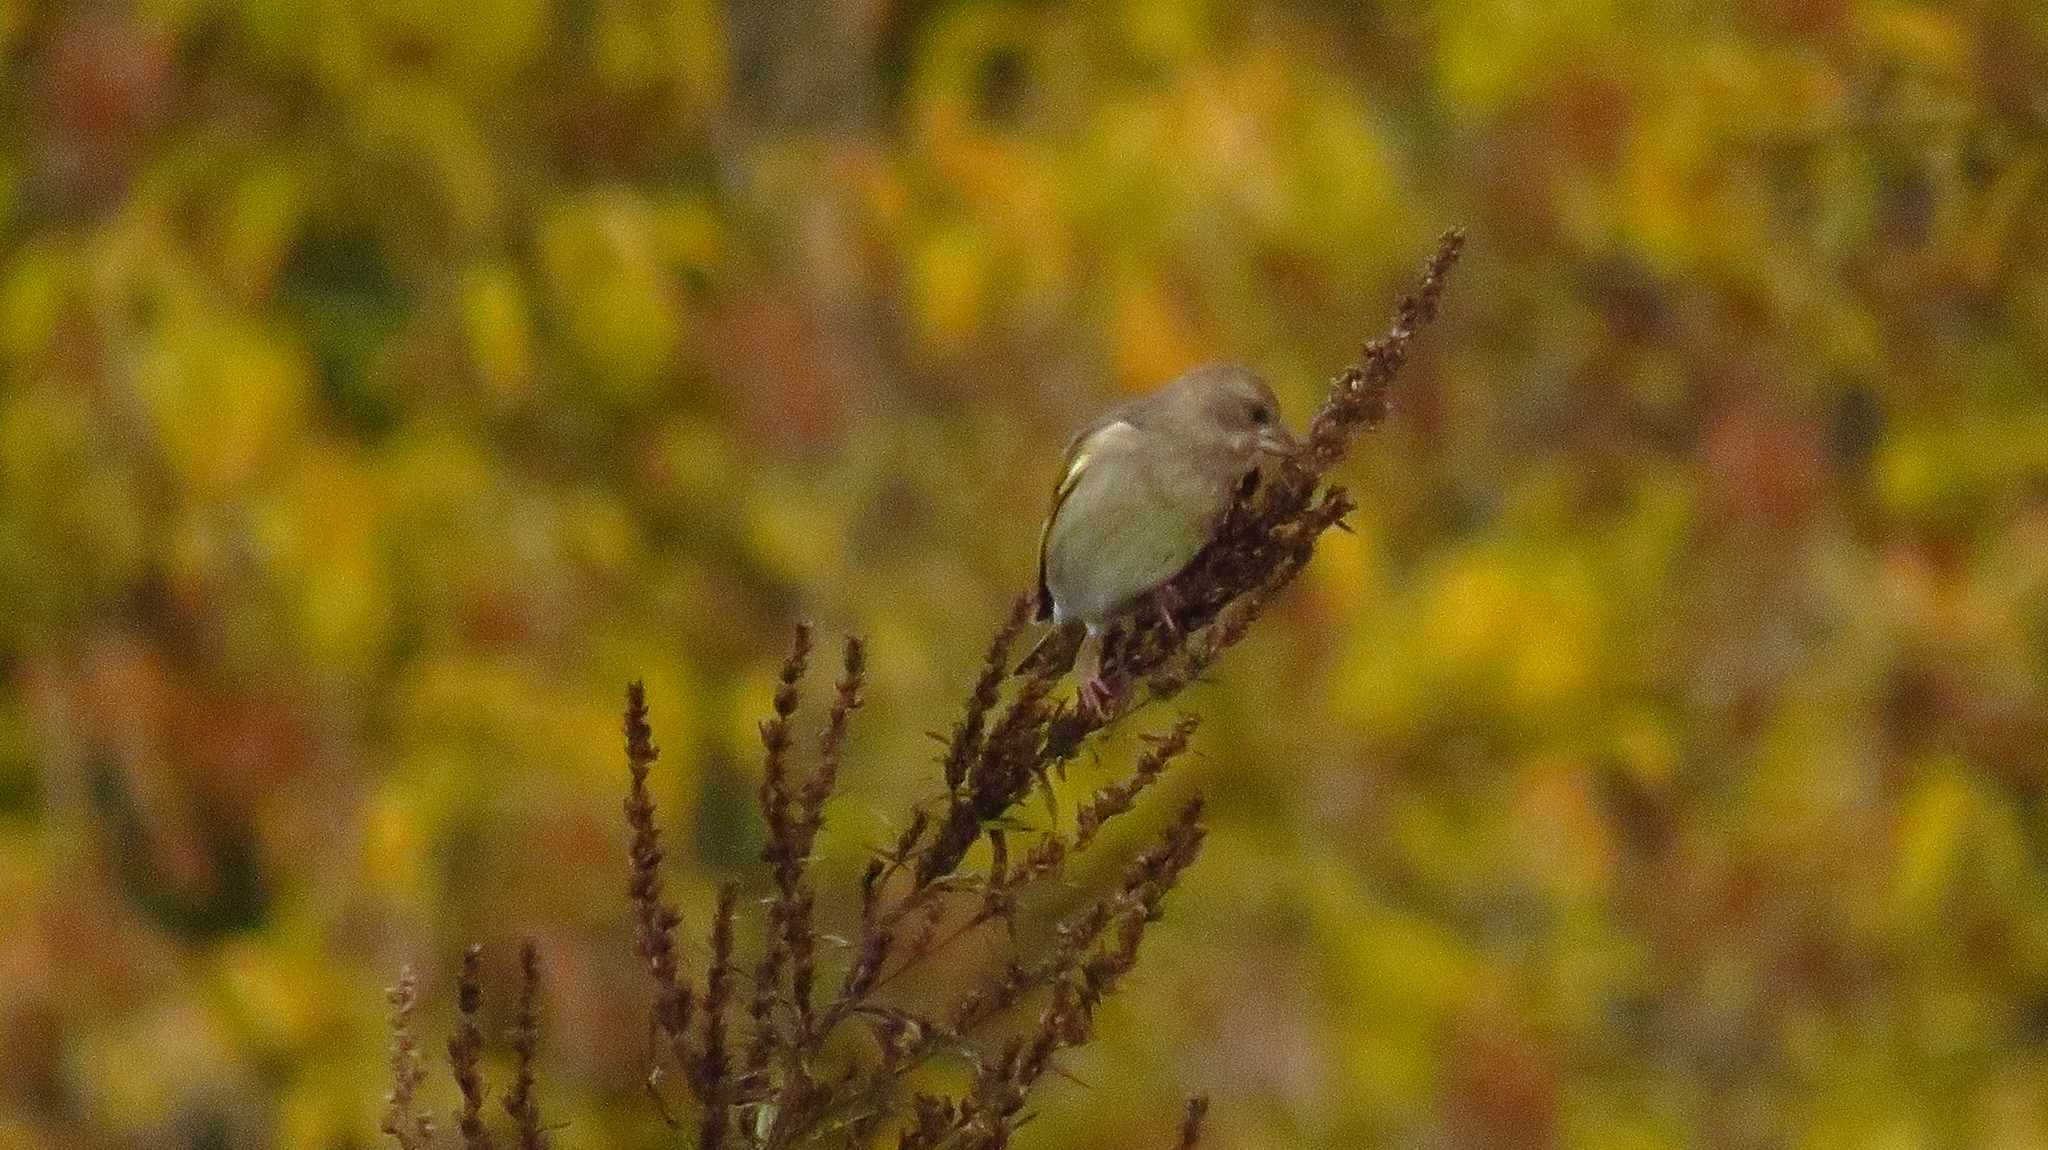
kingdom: Plantae
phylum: Tracheophyta
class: Liliopsida
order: Poales
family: Poaceae
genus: Chloris
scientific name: Chloris chloris
